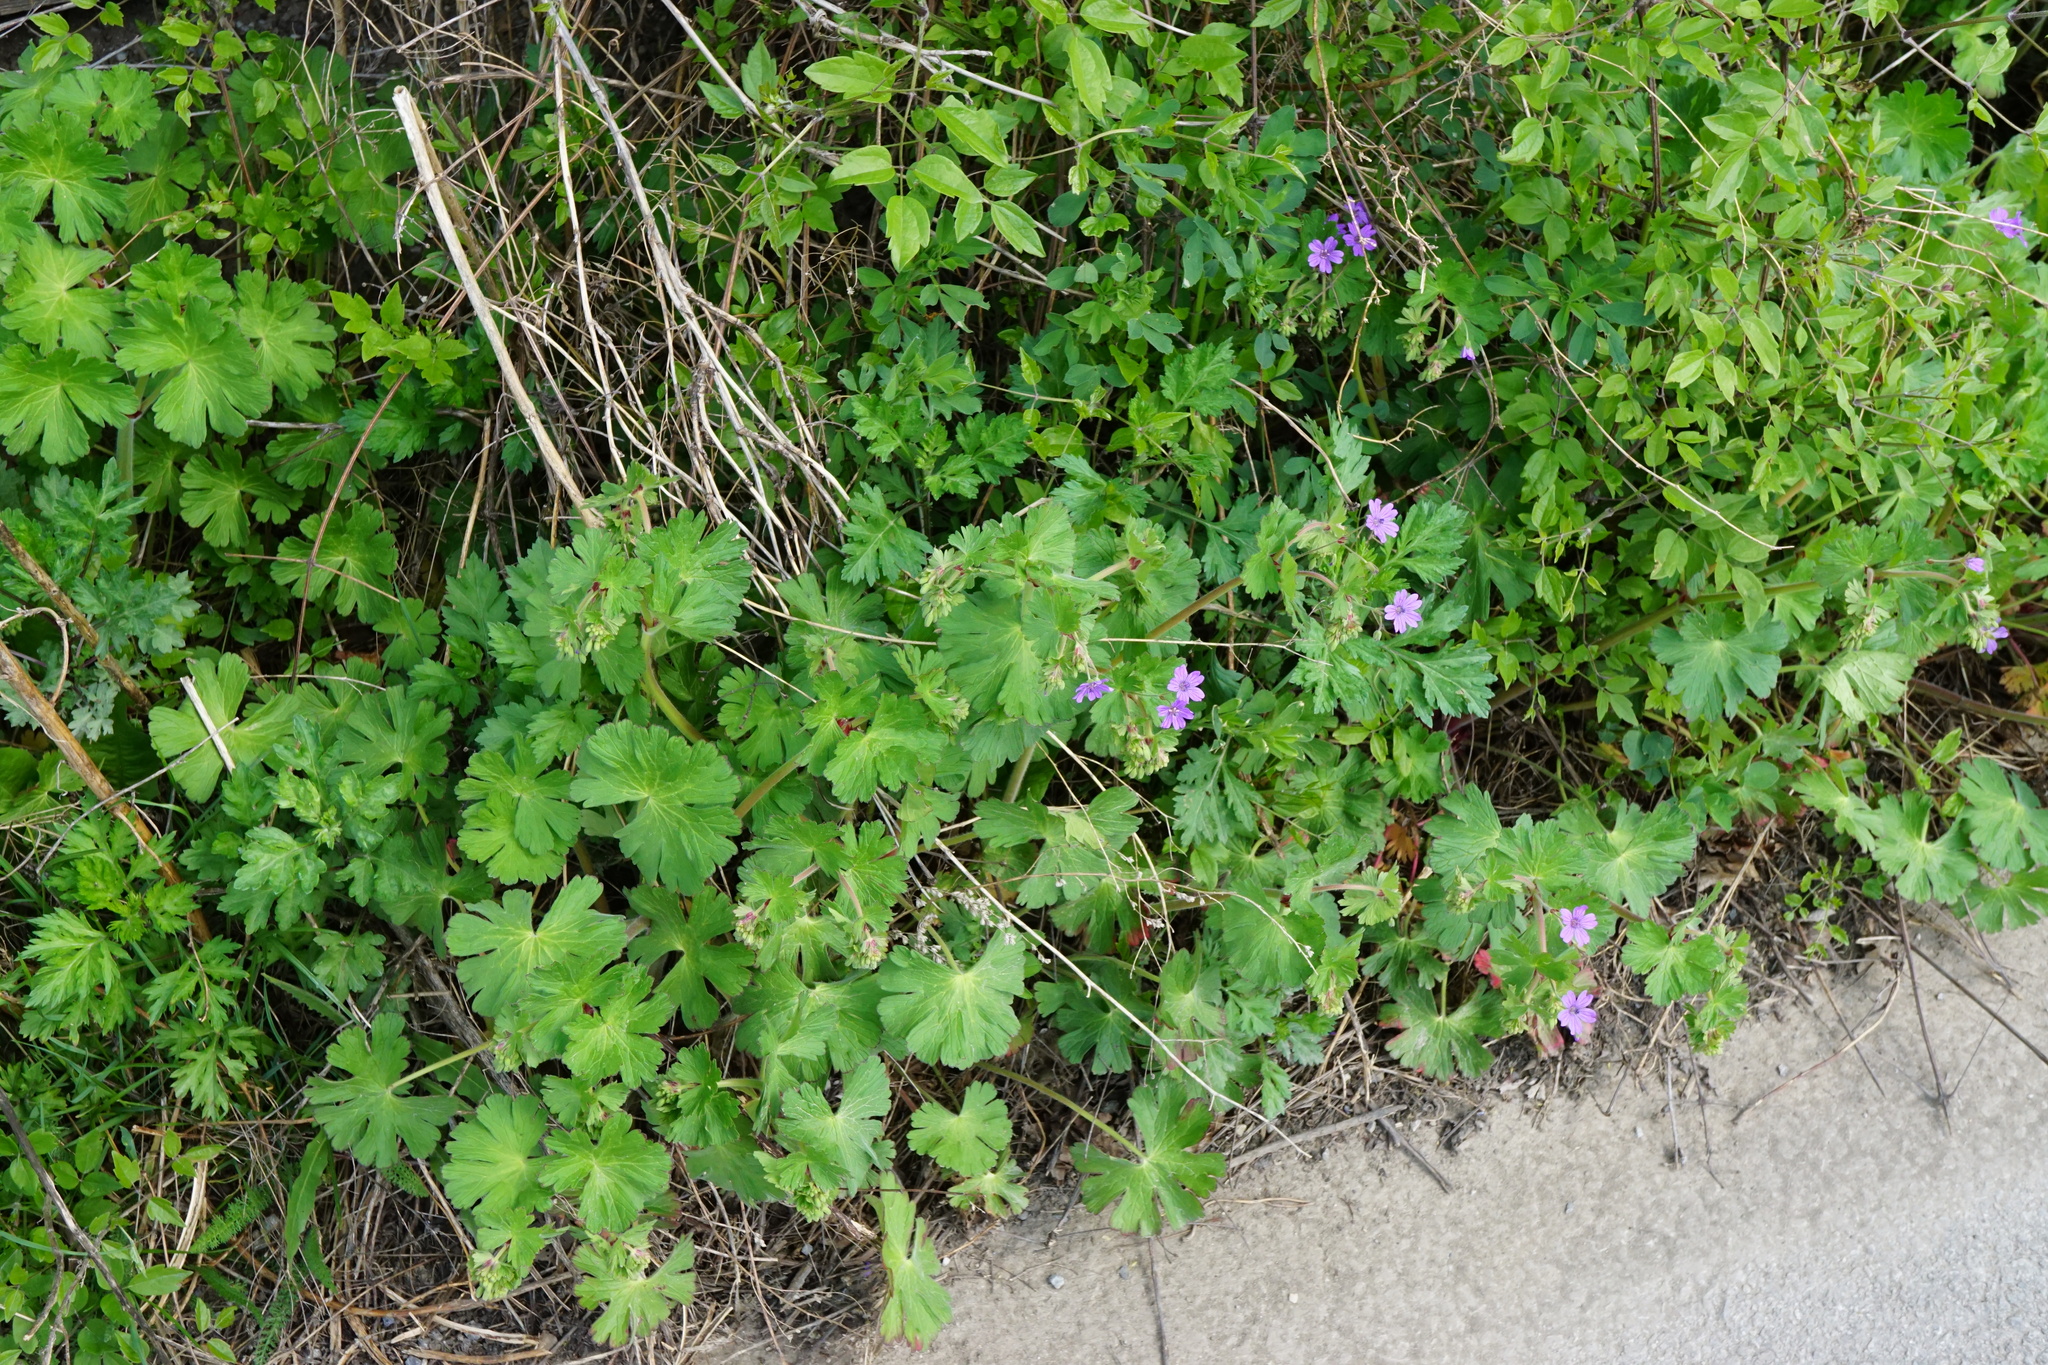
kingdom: Plantae
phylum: Tracheophyta
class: Magnoliopsida
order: Geraniales
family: Geraniaceae
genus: Geranium
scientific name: Geranium pyrenaicum
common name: Hedgerow crane's-bill
